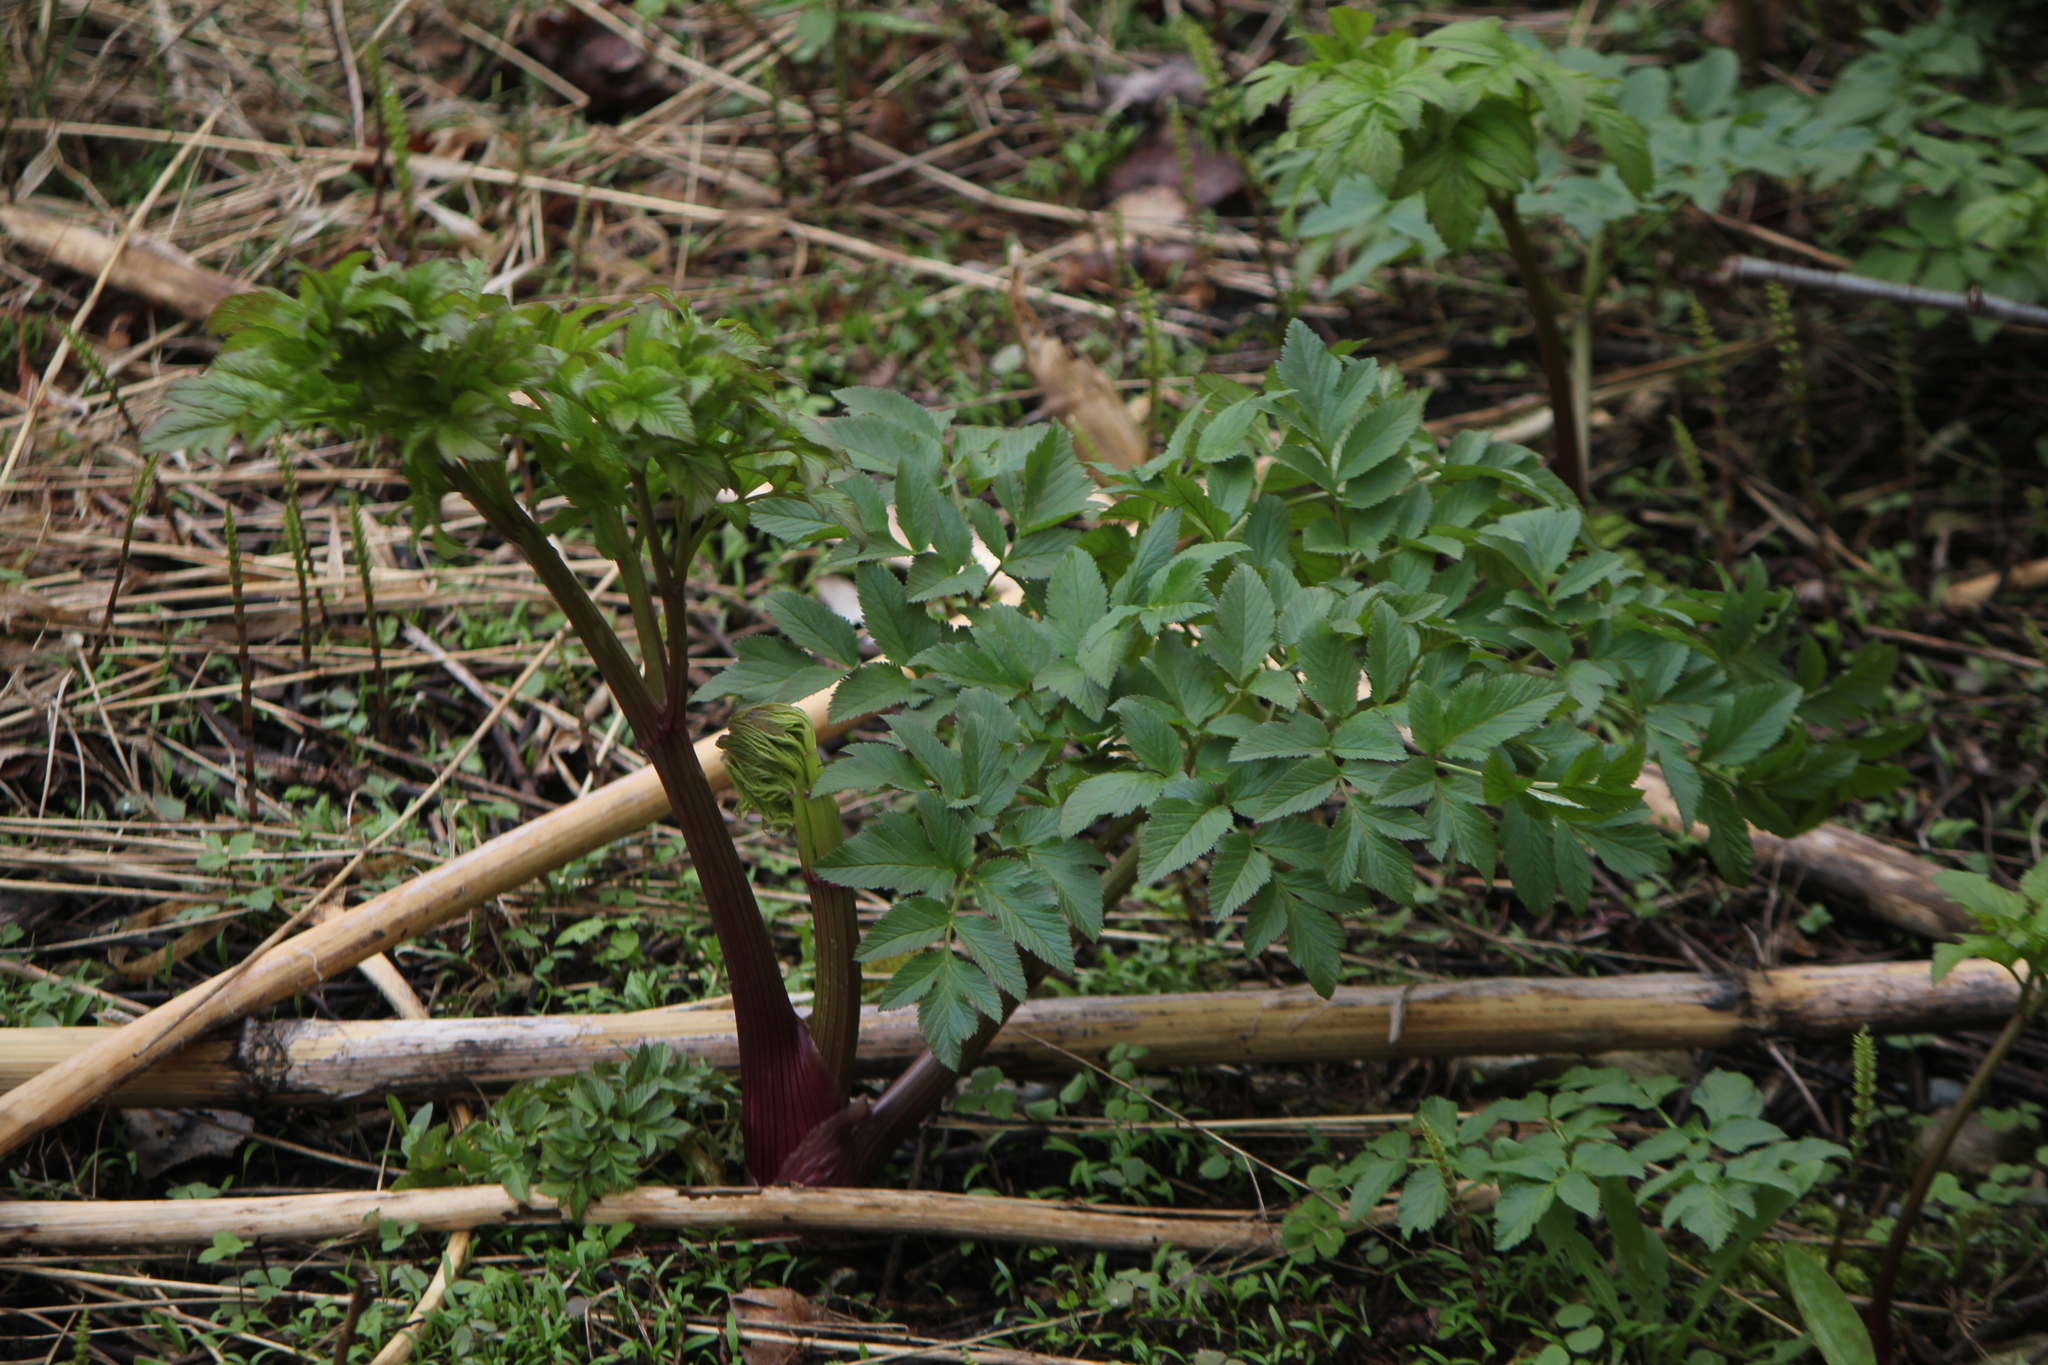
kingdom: Plantae
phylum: Tracheophyta
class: Magnoliopsida
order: Apiales
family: Apiaceae
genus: Angelica
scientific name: Angelica atropurpurea
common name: Great angelica
